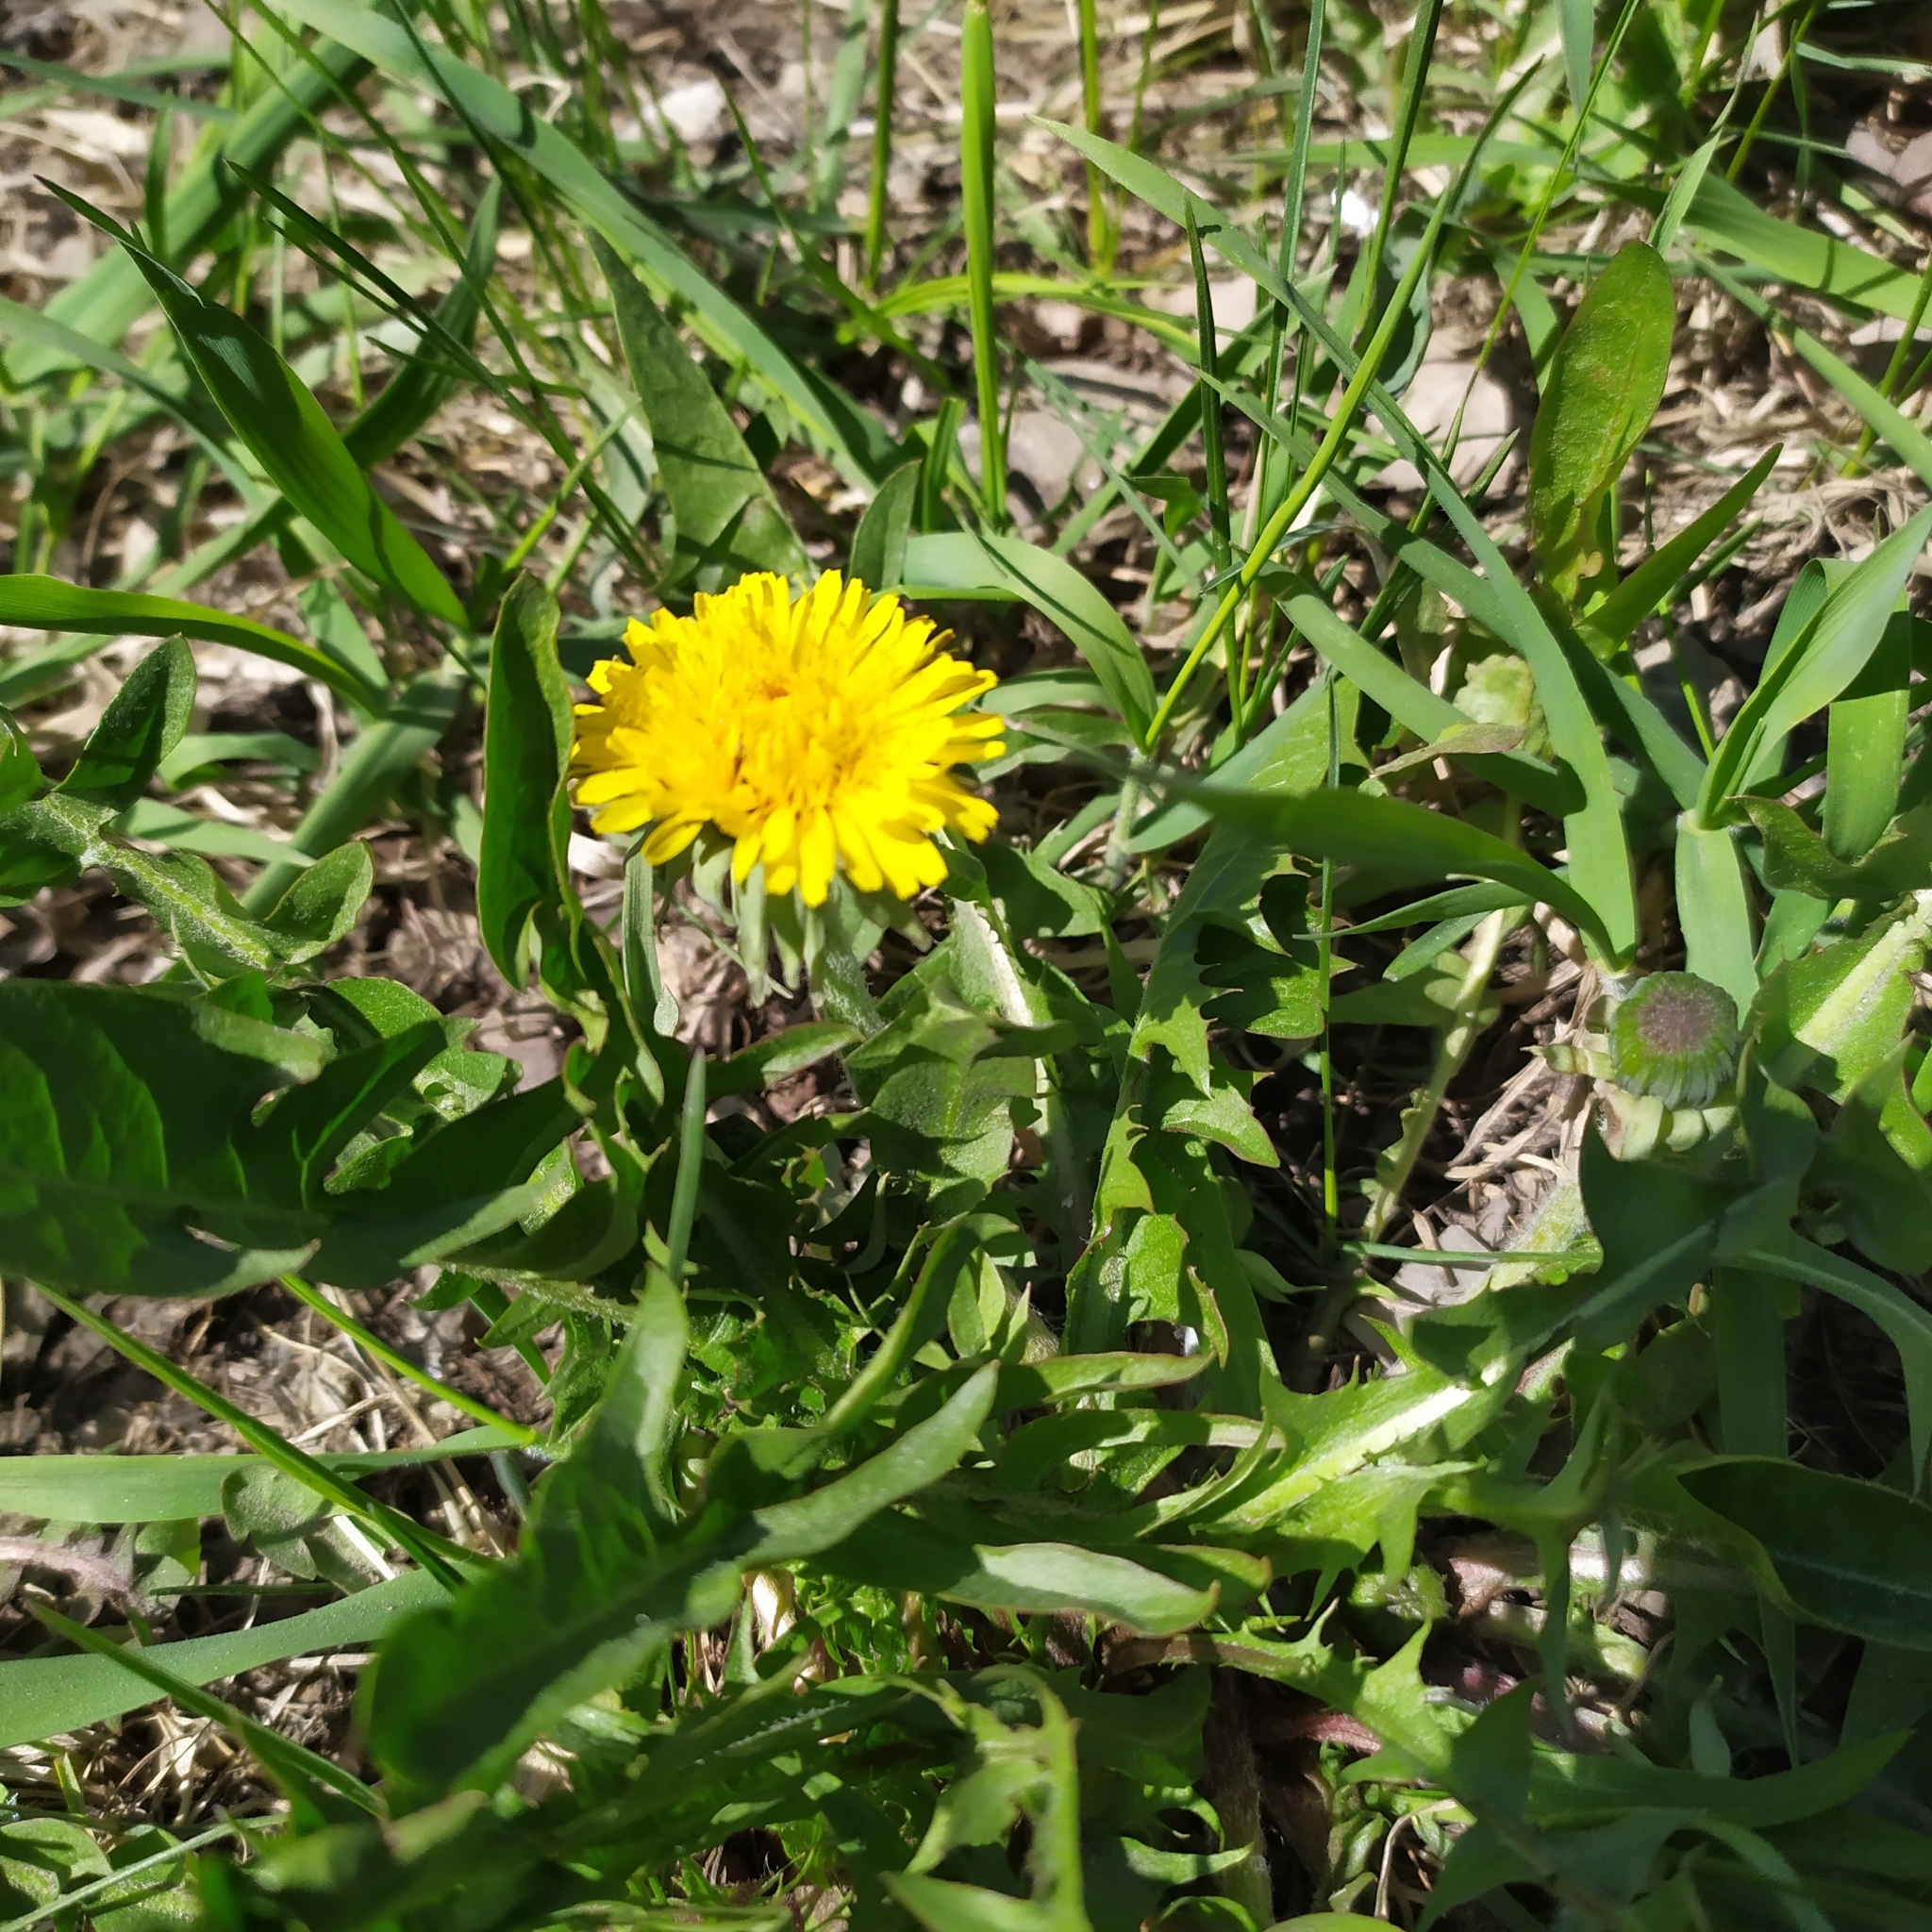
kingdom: Plantae
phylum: Tracheophyta
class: Magnoliopsida
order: Asterales
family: Asteraceae
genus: Taraxacum
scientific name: Taraxacum officinale
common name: Common dandelion
